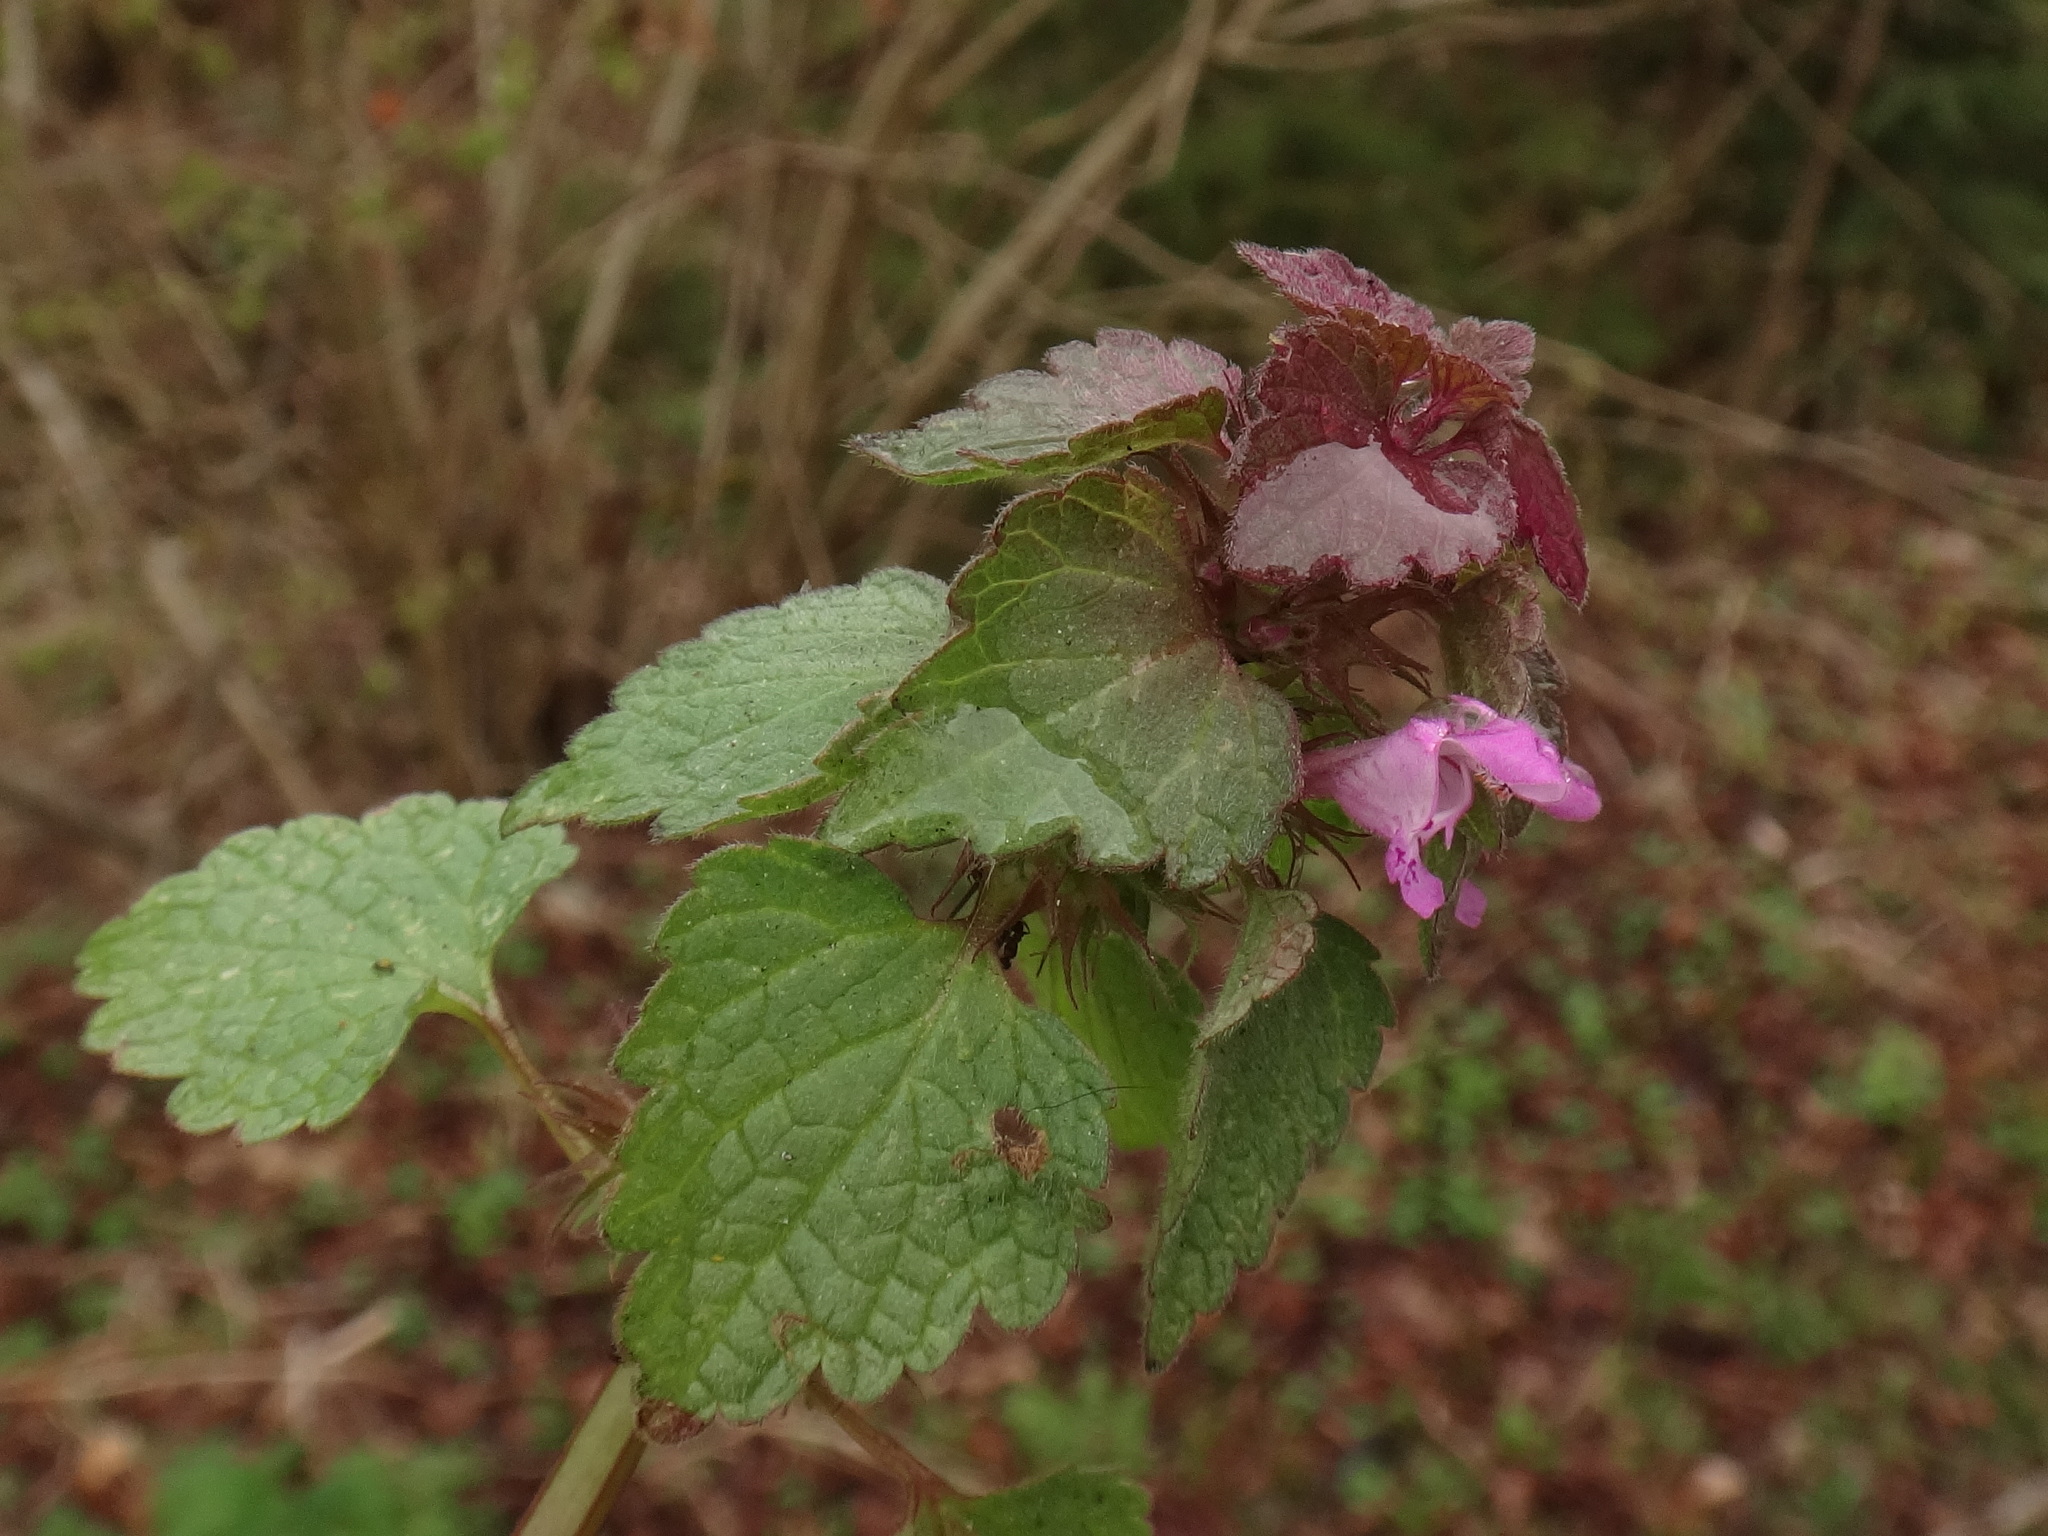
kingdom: Plantae
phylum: Tracheophyta
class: Magnoliopsida
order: Lamiales
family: Lamiaceae
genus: Lamium
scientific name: Lamium purpureum
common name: Red dead-nettle
